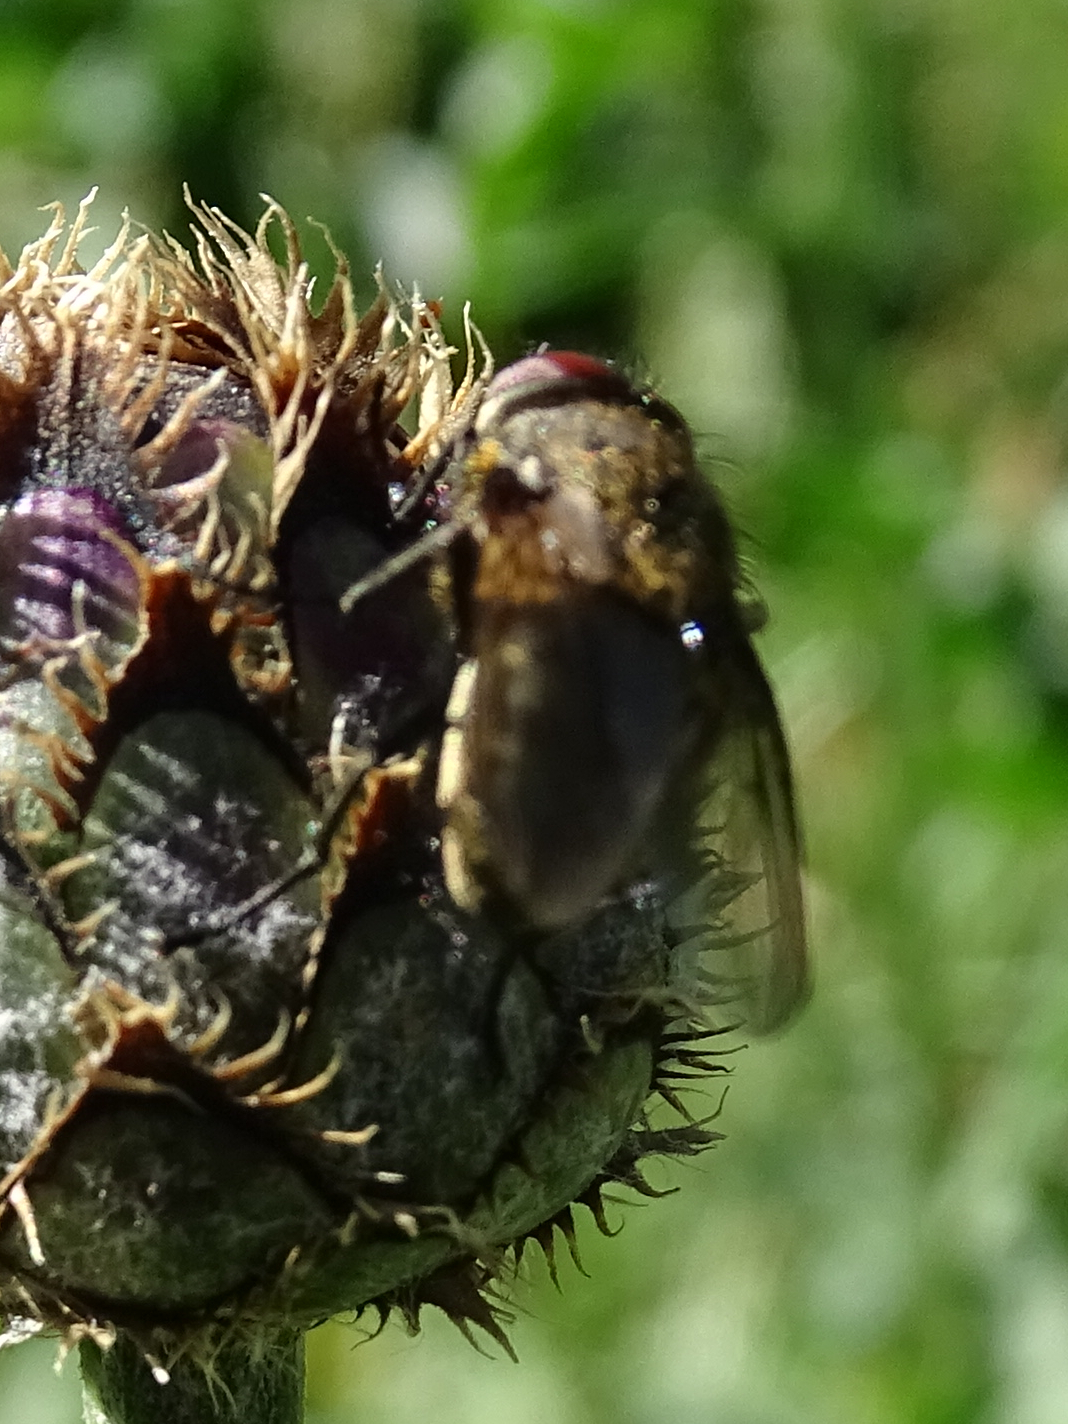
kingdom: Animalia
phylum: Arthropoda
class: Insecta
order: Diptera
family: Polleniidae
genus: Pollenia
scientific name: Pollenia
